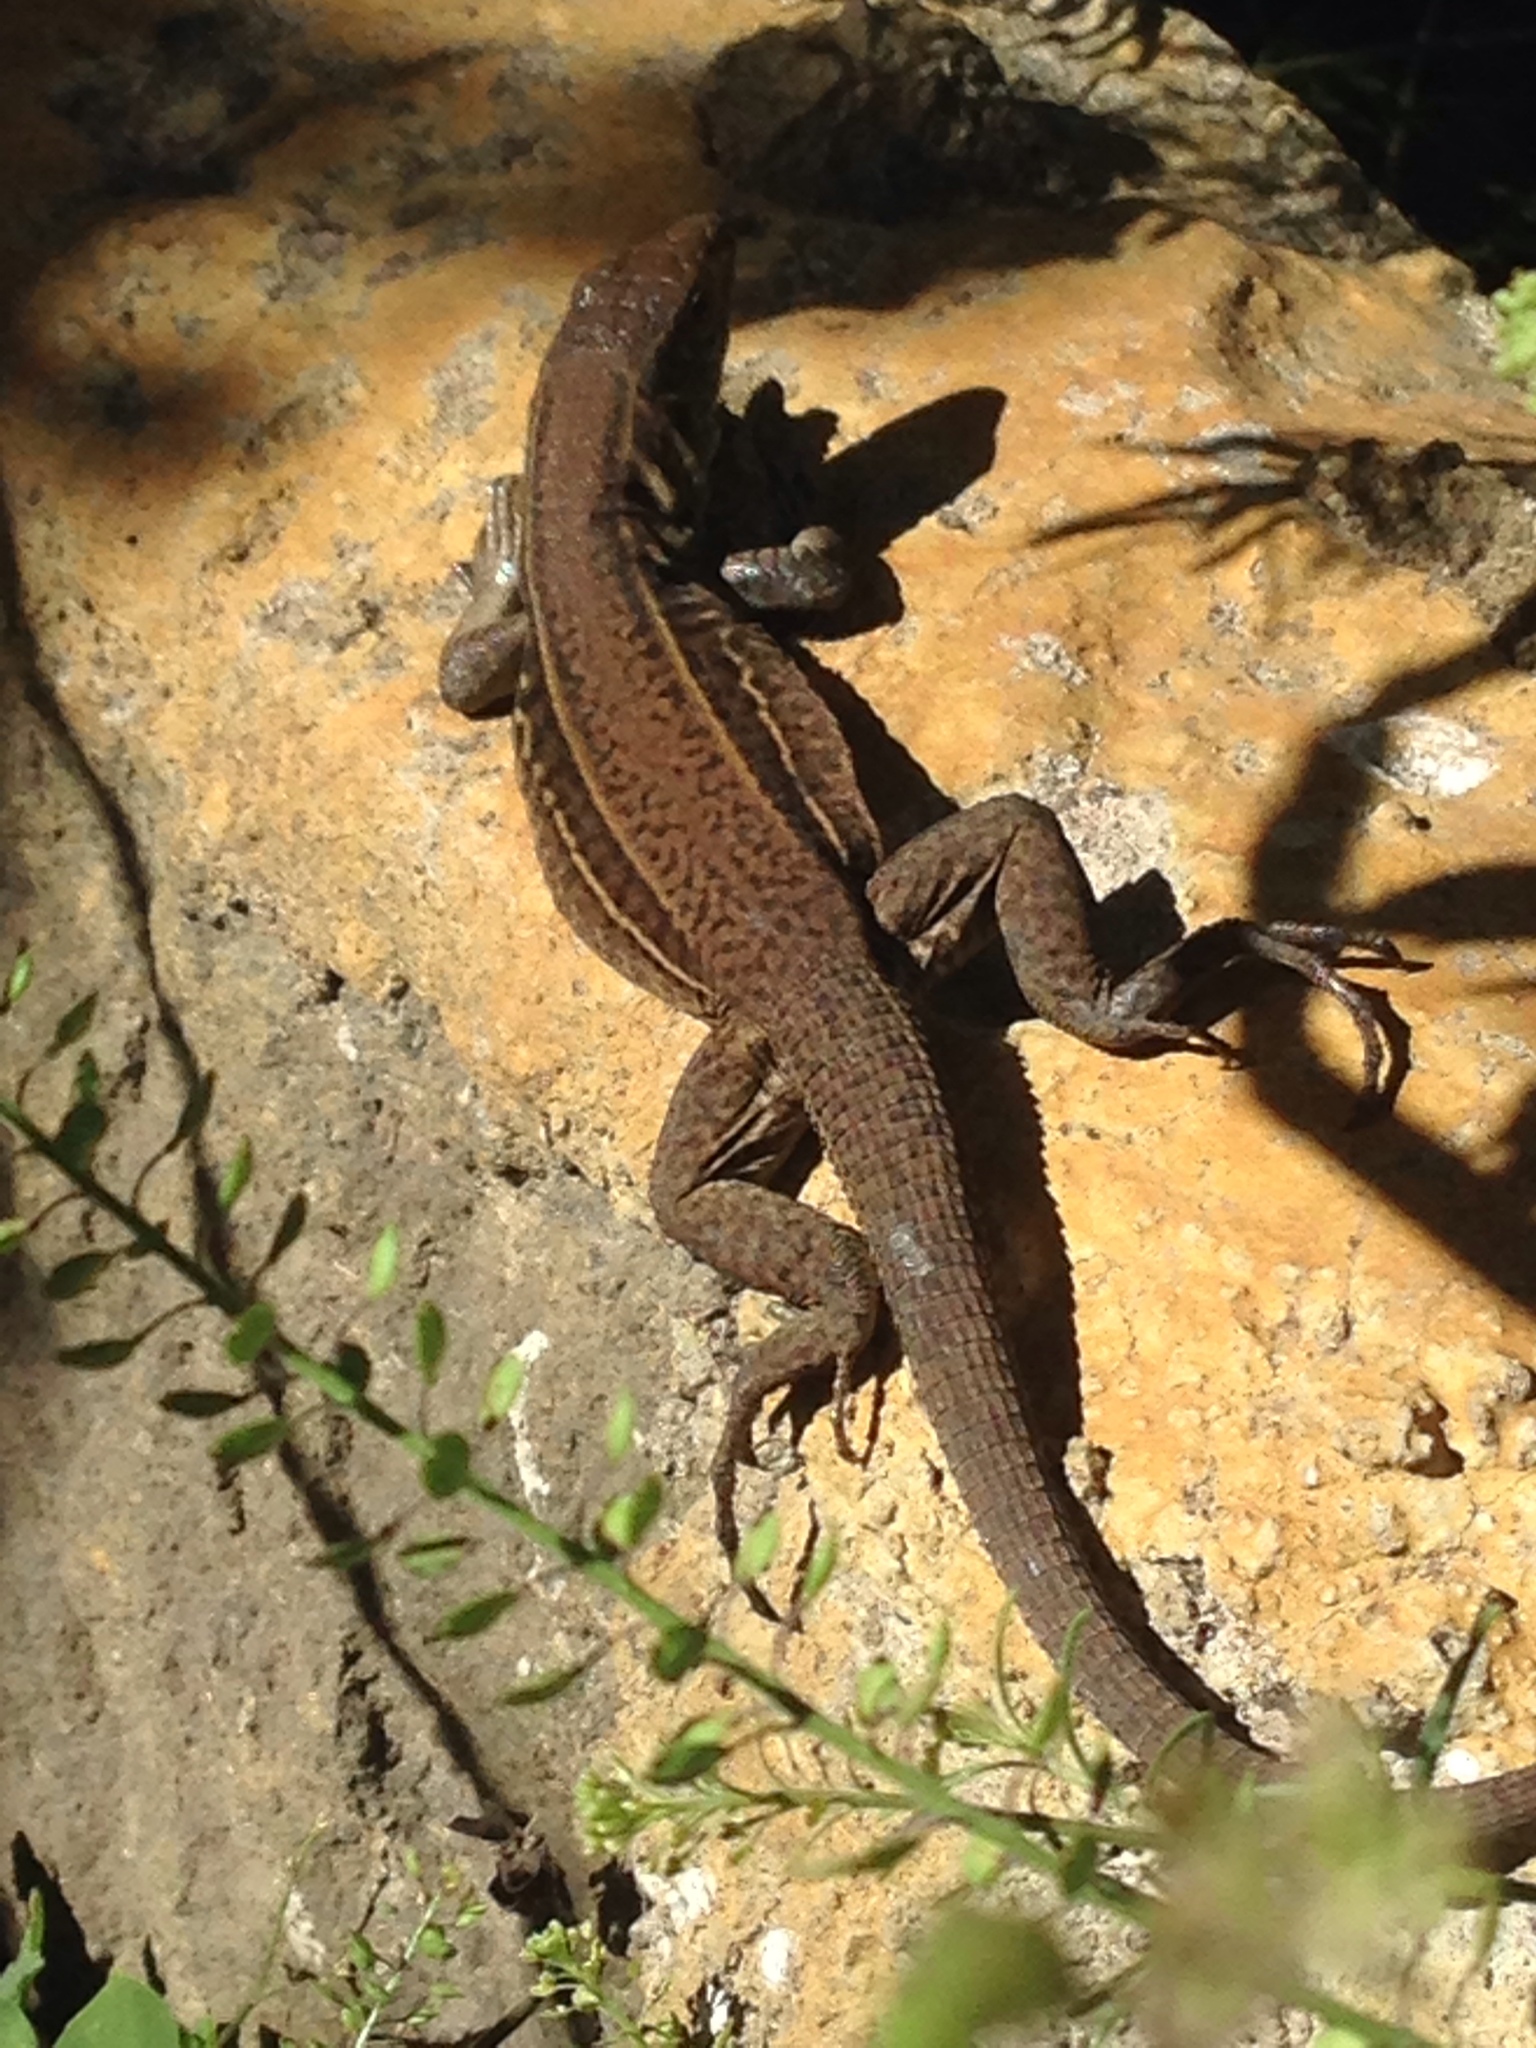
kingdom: Animalia
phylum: Chordata
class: Squamata
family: Teiidae
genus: Holcosus
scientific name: Holcosus undulatus
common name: Rainbow ameiva
